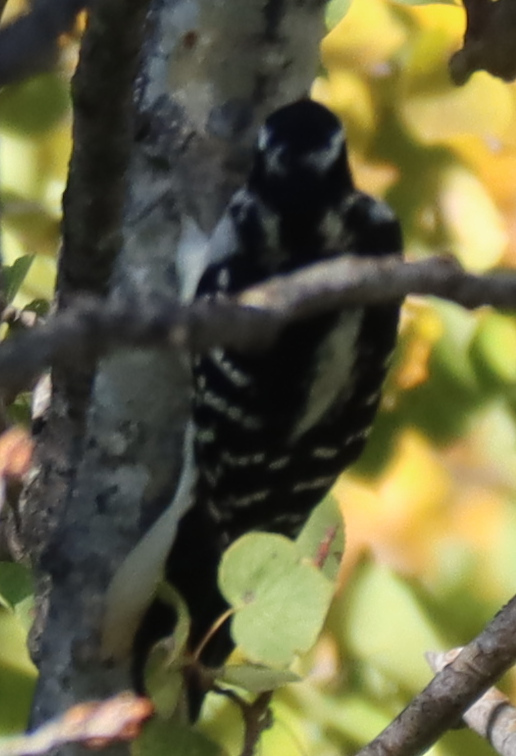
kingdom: Animalia
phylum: Chordata
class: Aves
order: Piciformes
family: Picidae
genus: Dryobates
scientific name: Dryobates pubescens
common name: Downy woodpecker
